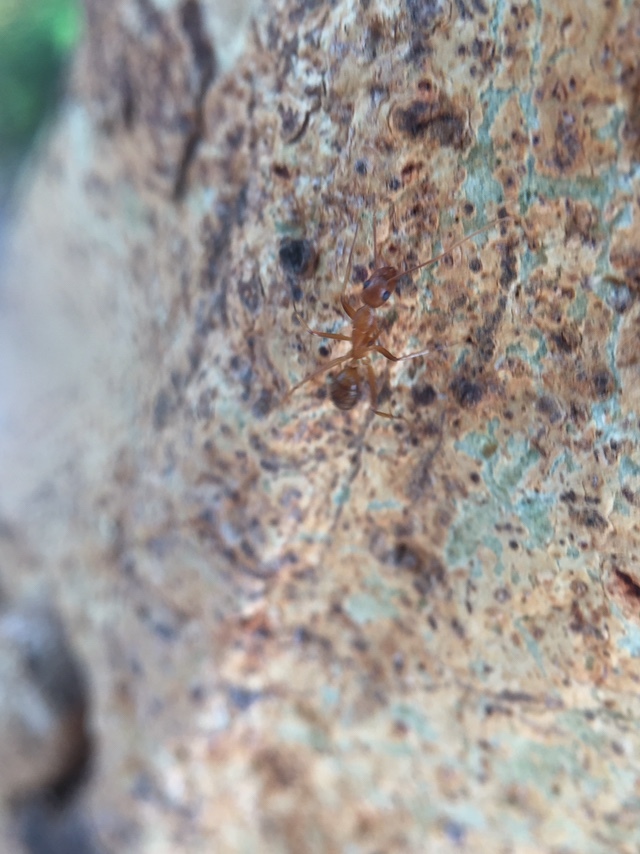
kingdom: Animalia
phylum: Arthropoda
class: Insecta
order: Hymenoptera
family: Formicidae
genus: Camponotus
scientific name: Camponotus irritans
